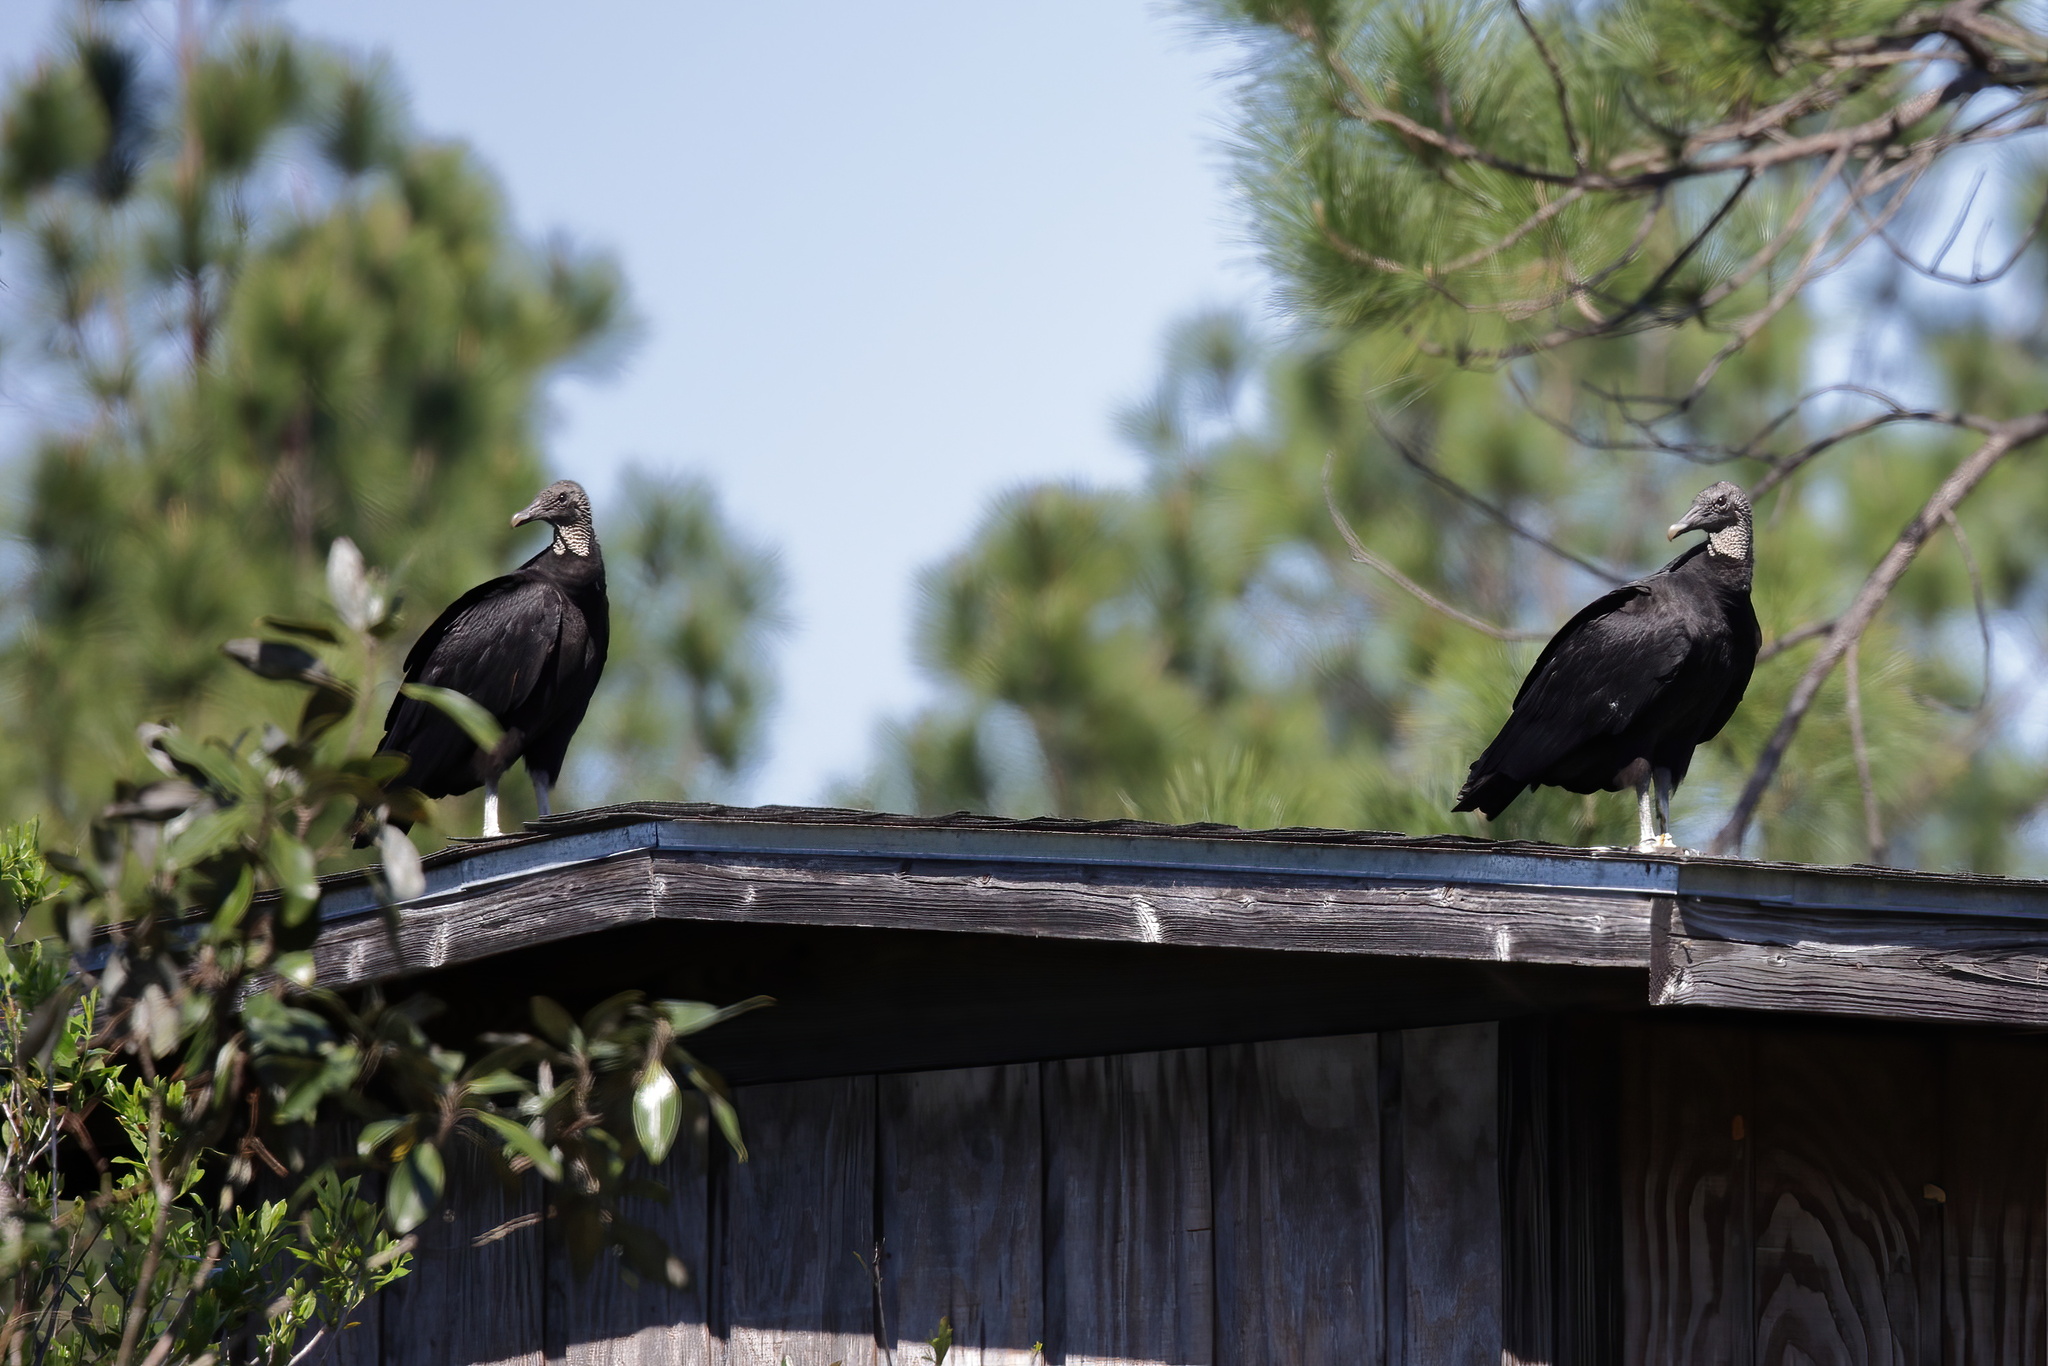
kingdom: Animalia
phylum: Chordata
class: Aves
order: Accipitriformes
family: Cathartidae
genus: Coragyps
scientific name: Coragyps atratus
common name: Black vulture
